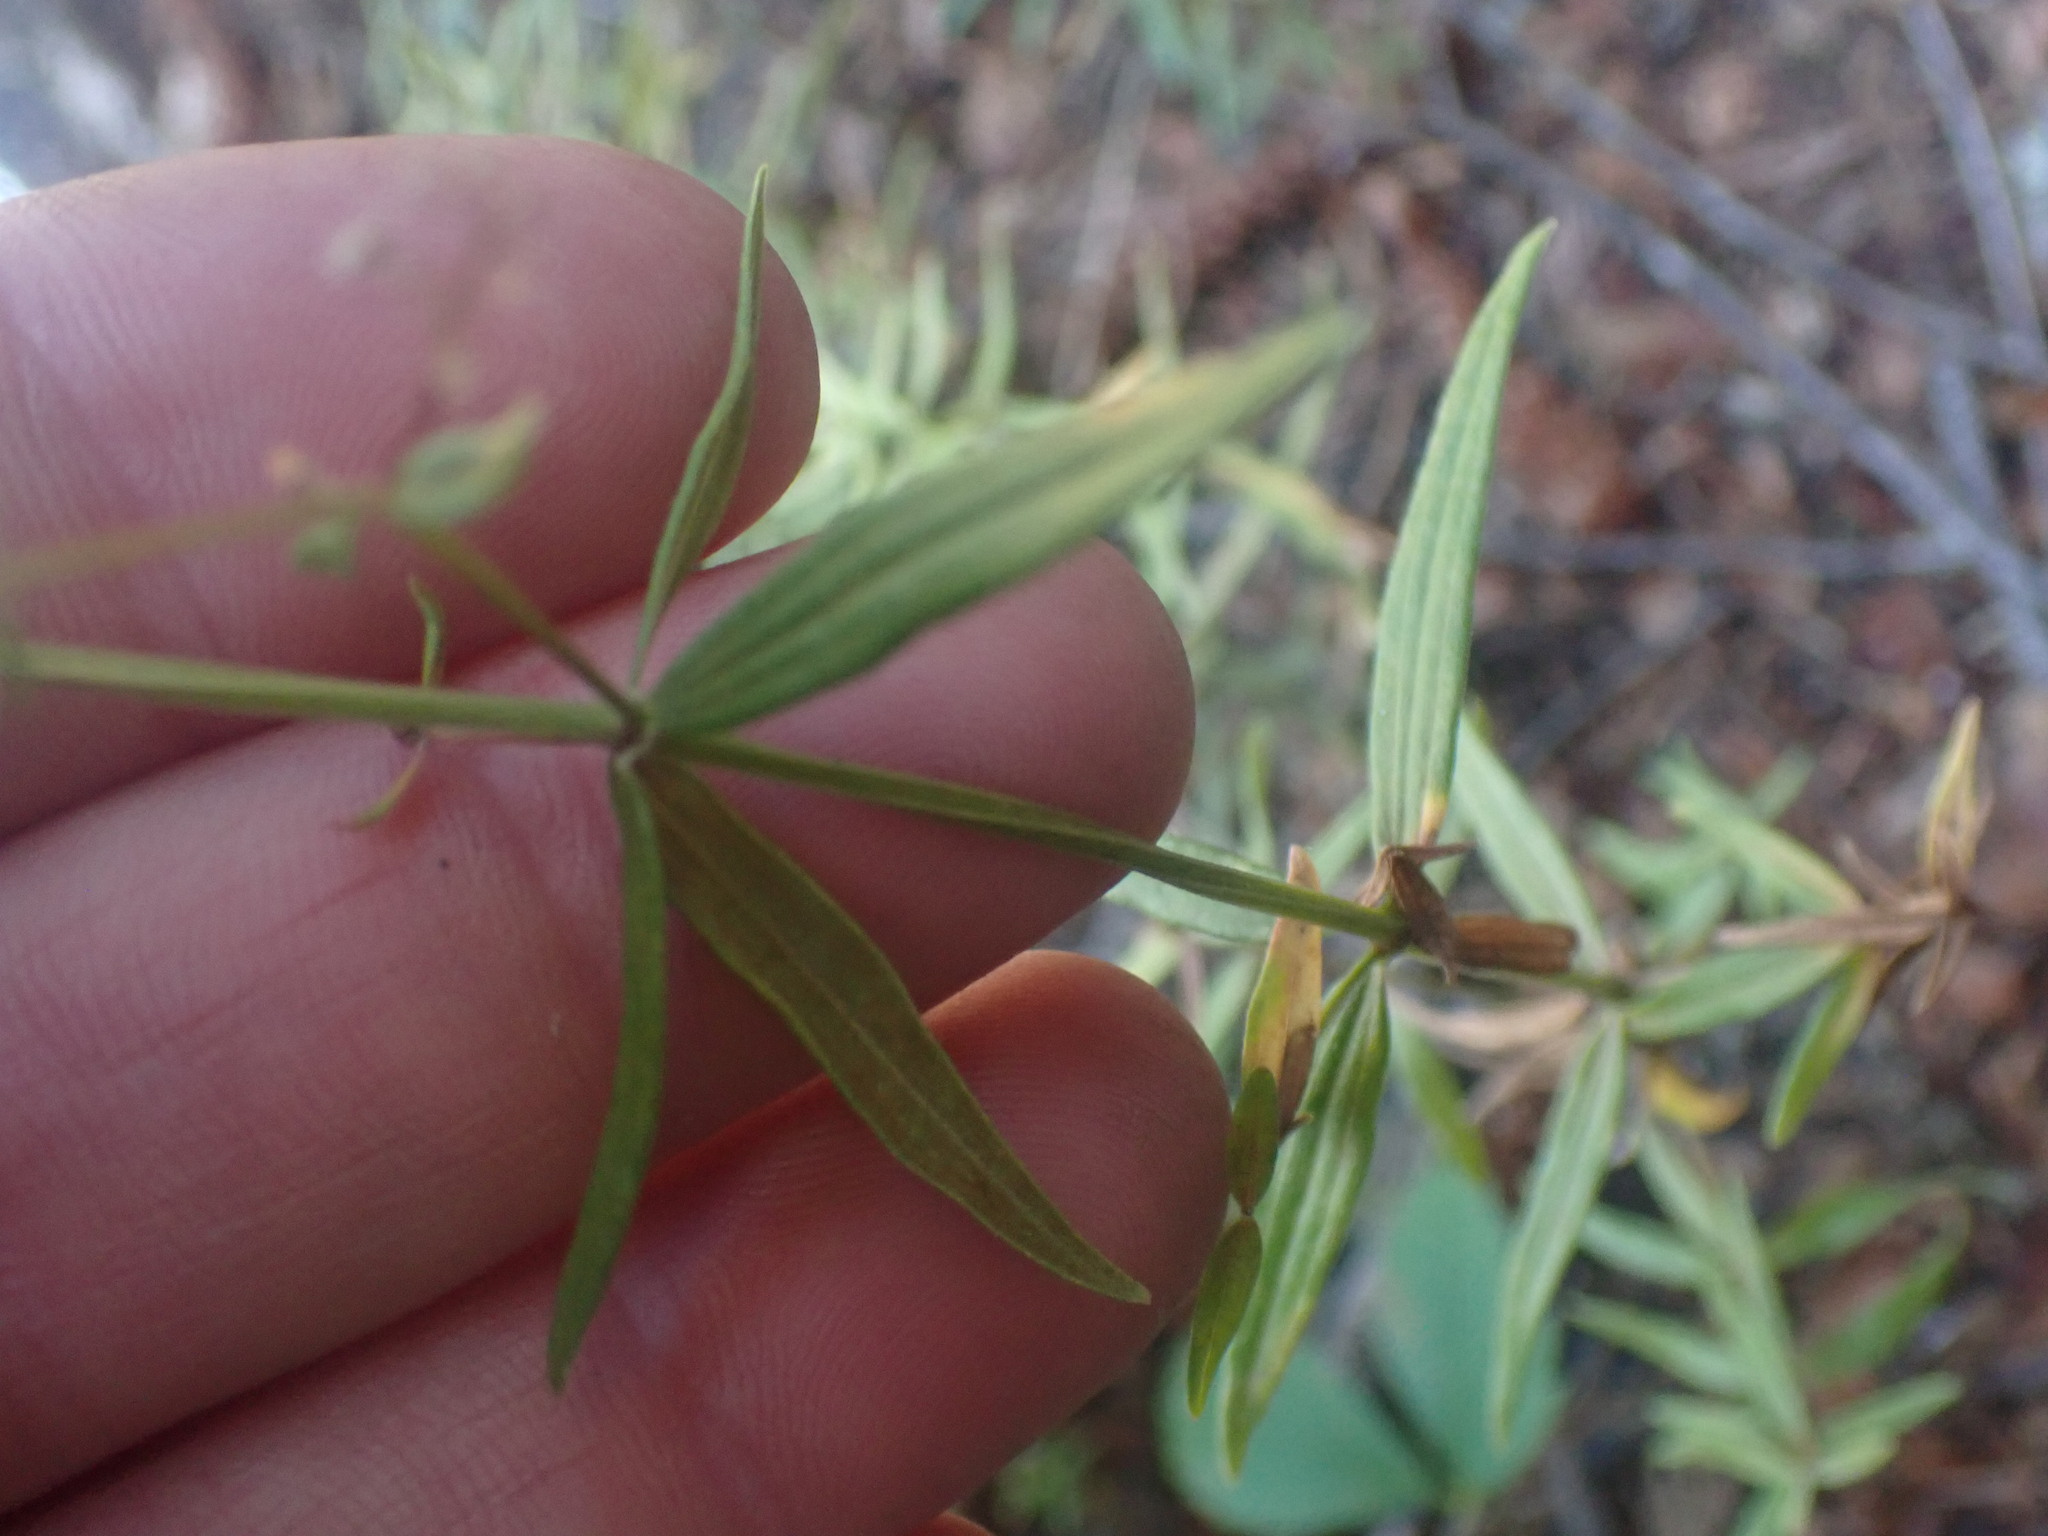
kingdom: Plantae
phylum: Tracheophyta
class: Magnoliopsida
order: Gentianales
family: Rubiaceae
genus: Galium
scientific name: Galium boreale
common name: Northern bedstraw
